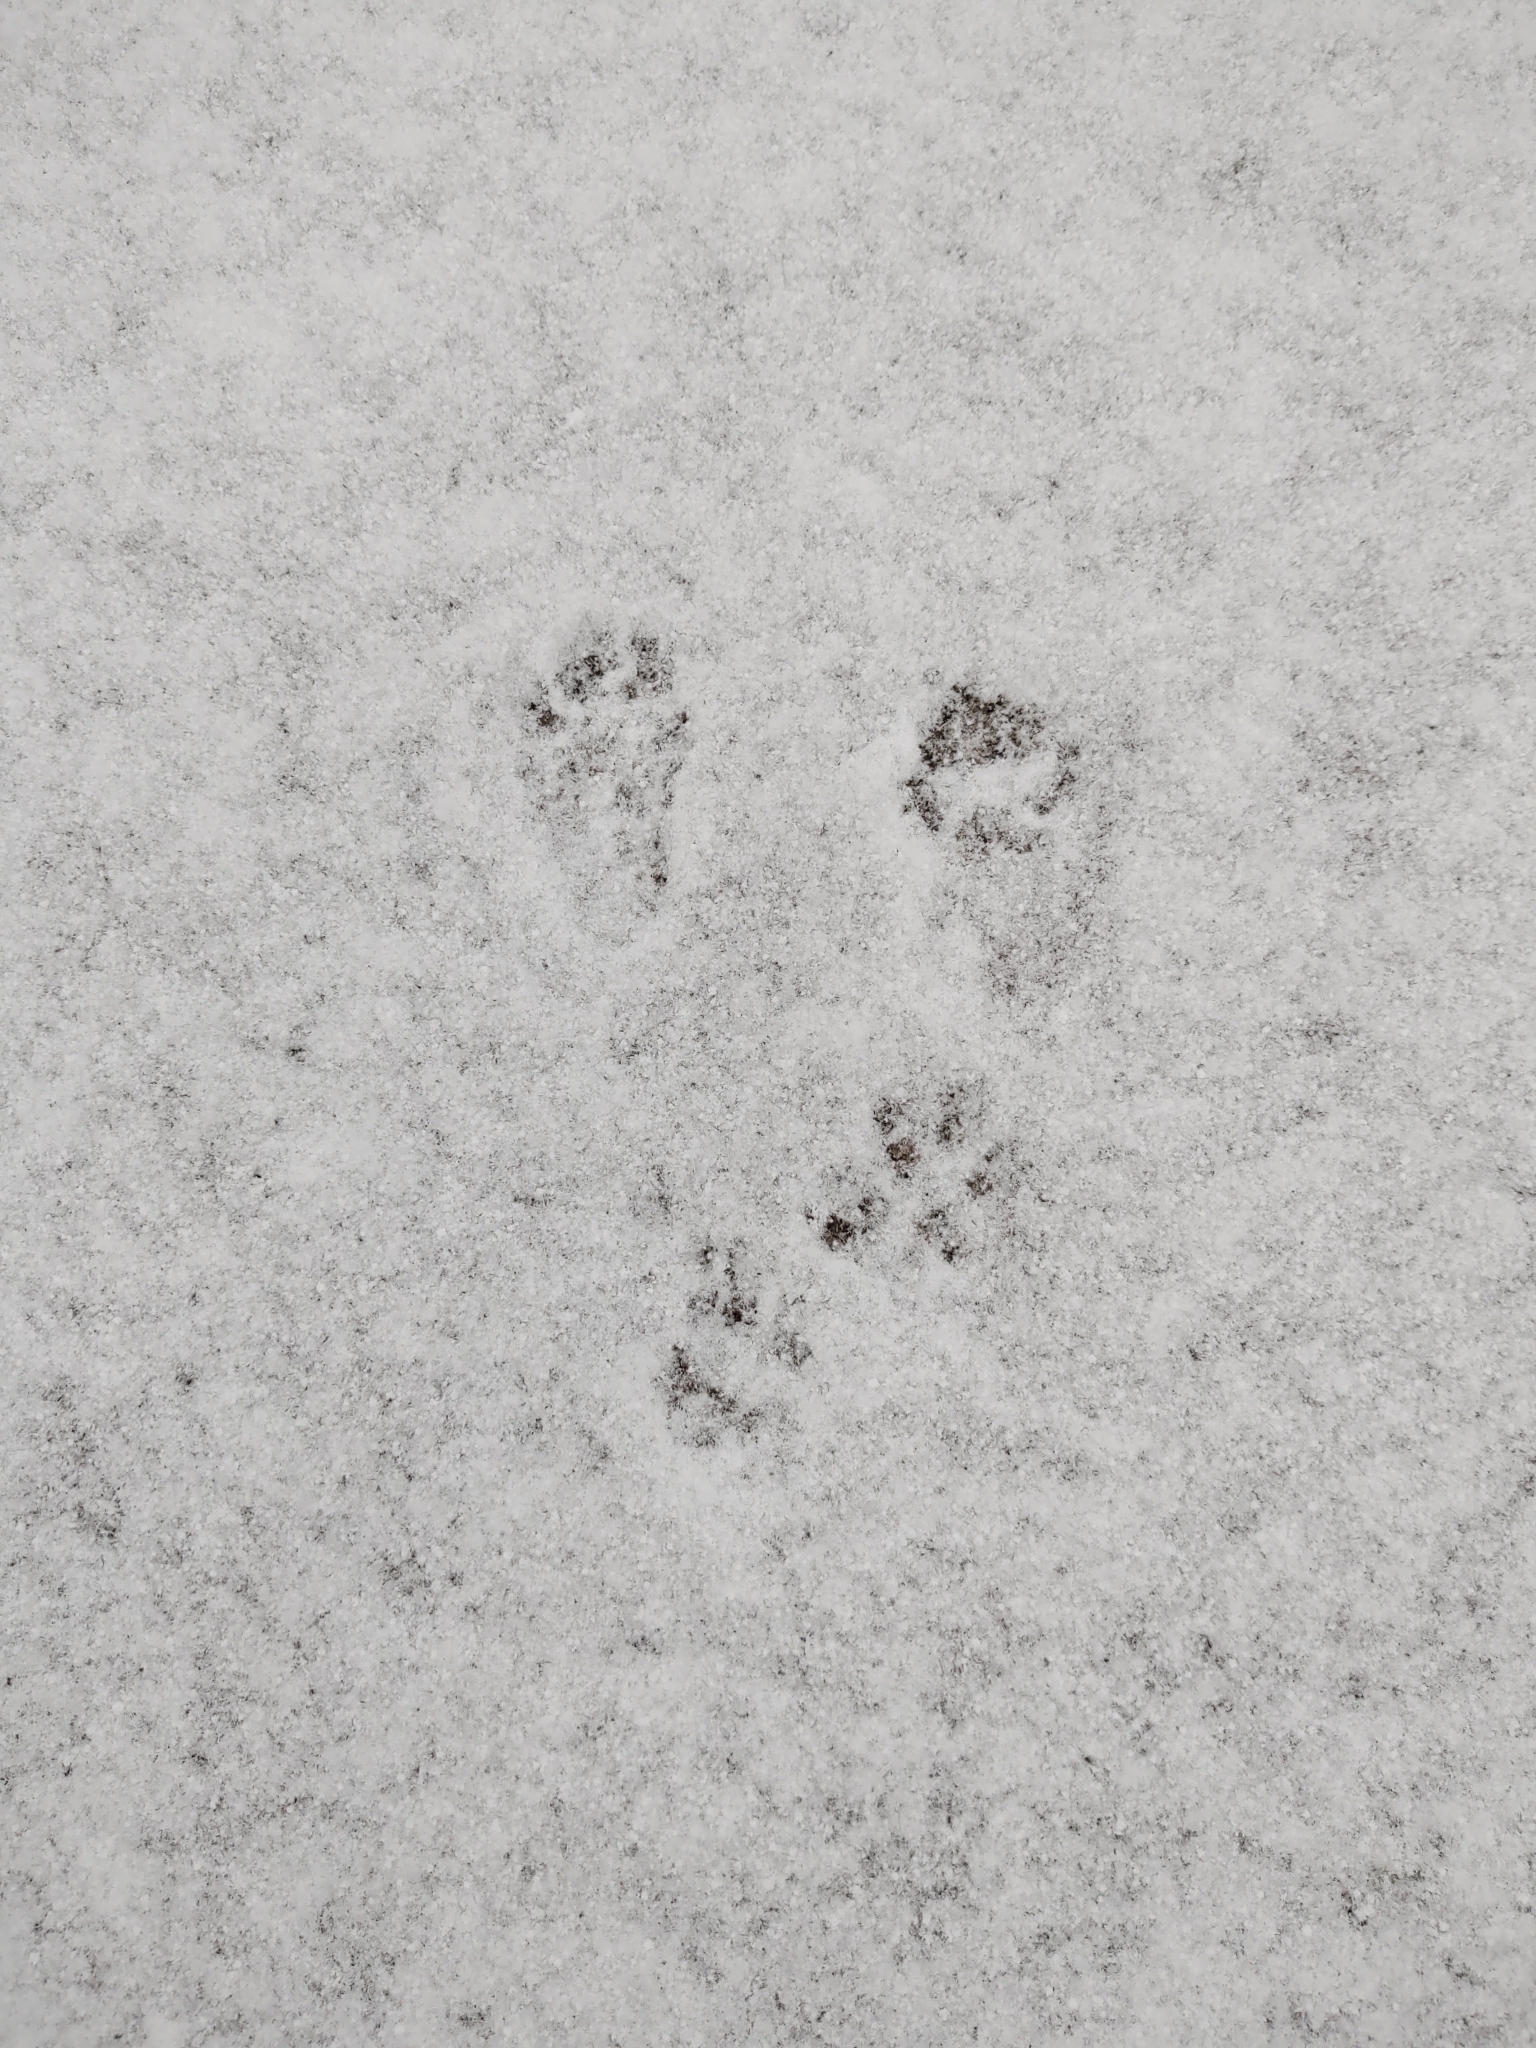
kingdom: Animalia
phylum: Chordata
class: Mammalia
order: Rodentia
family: Sciuridae
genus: Sciurus
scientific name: Sciurus carolinensis
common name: Eastern gray squirrel
